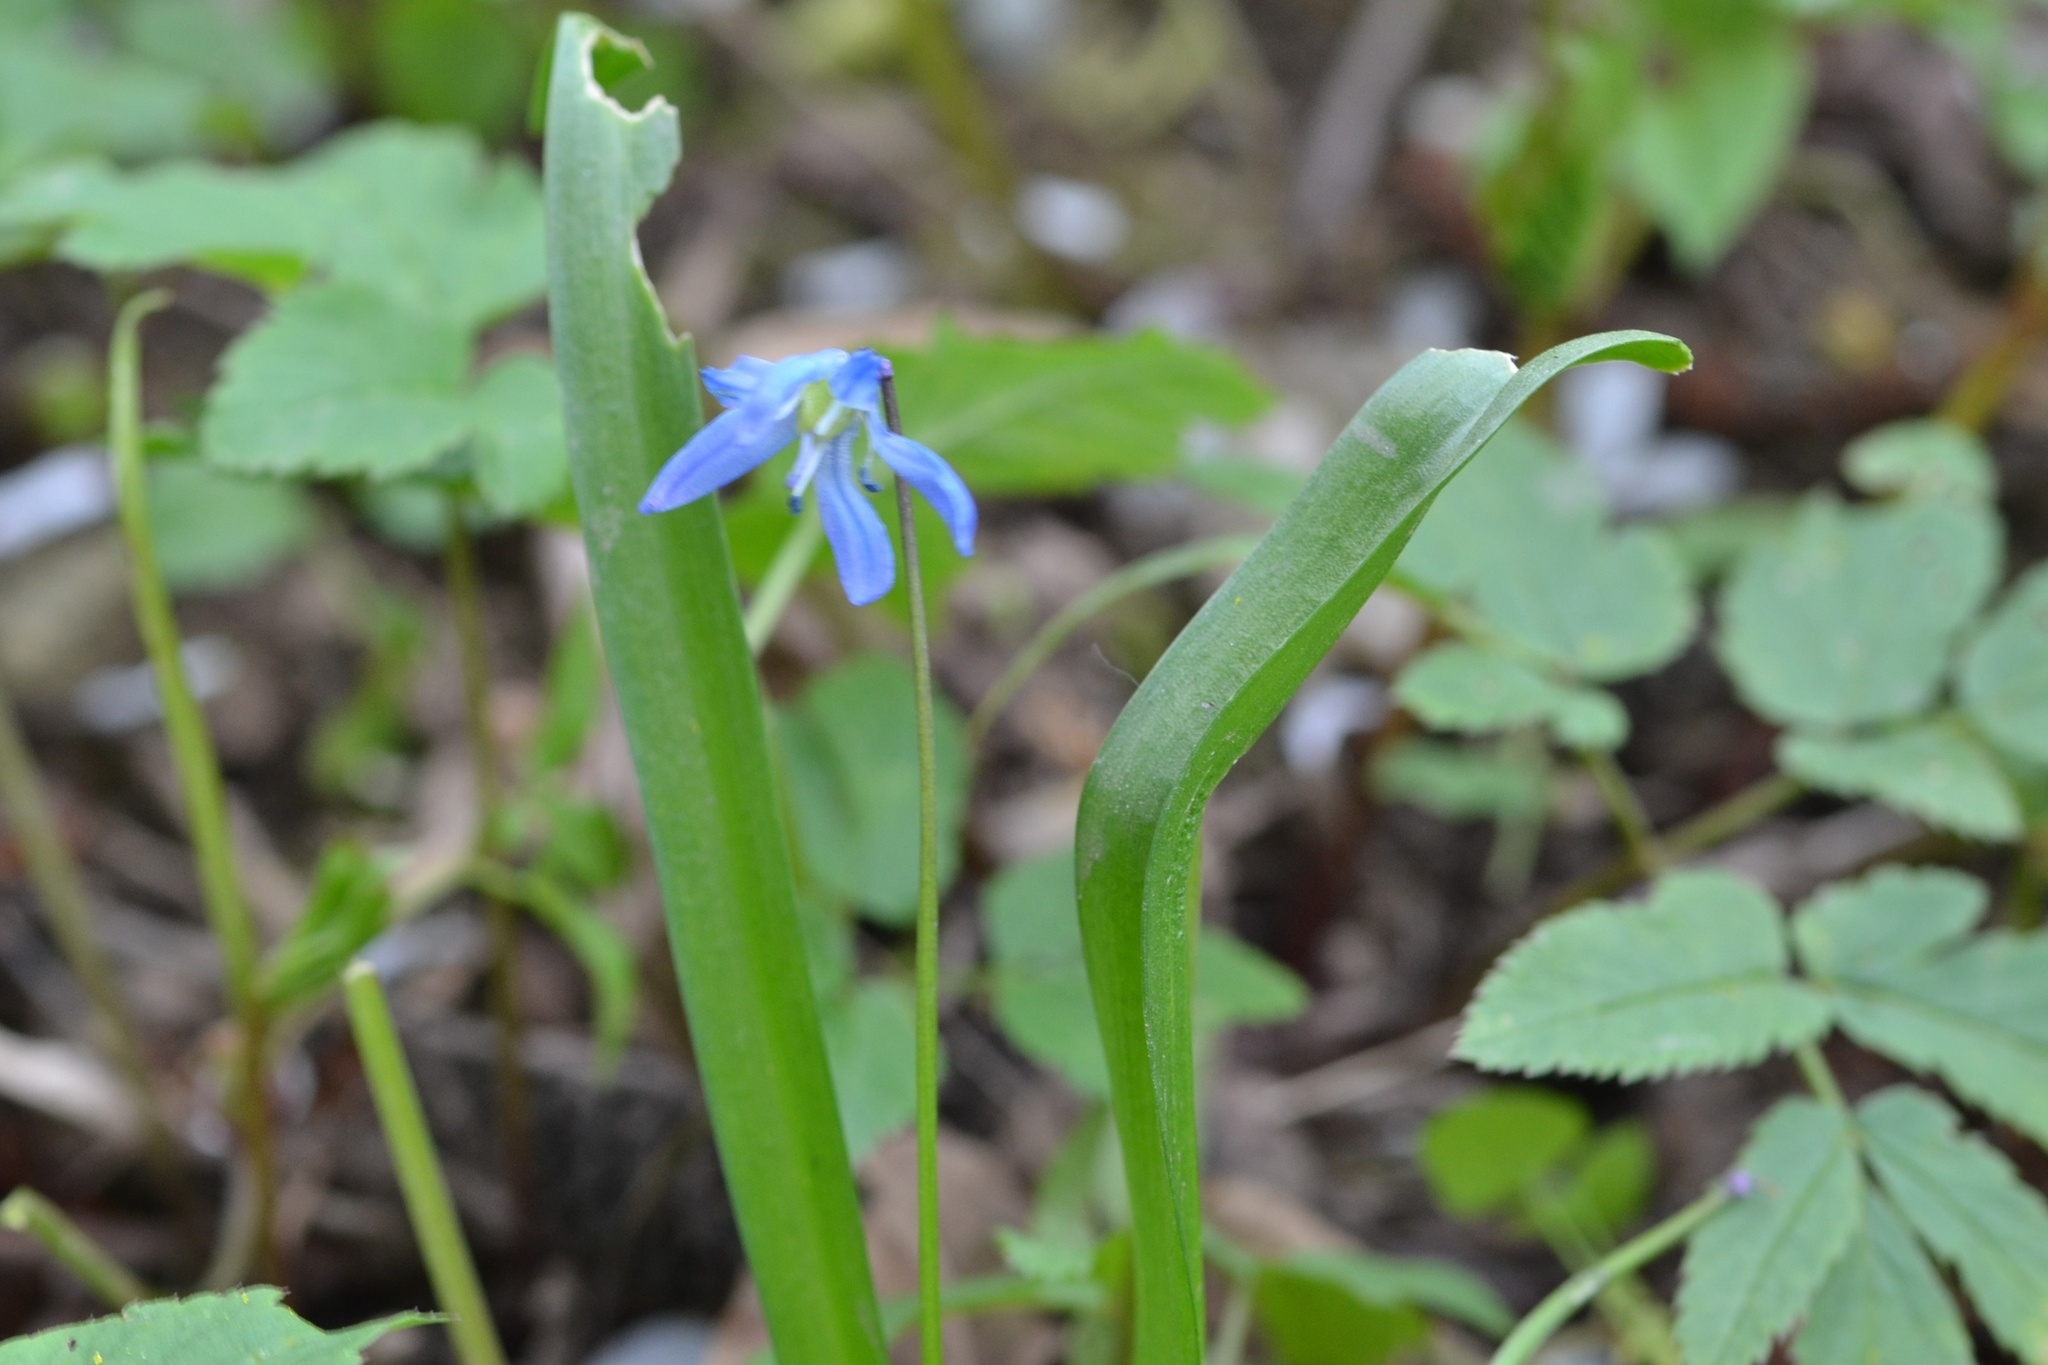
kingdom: Plantae
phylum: Tracheophyta
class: Liliopsida
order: Asparagales
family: Asparagaceae
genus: Scilla
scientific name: Scilla siberica
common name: Siberian squill
